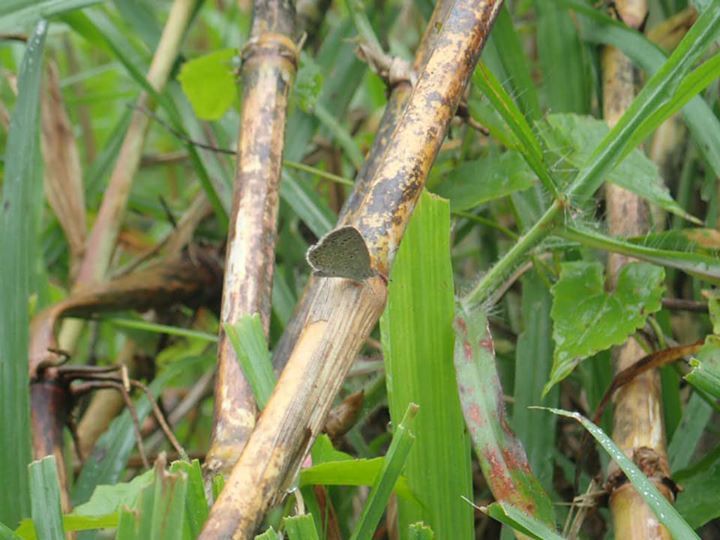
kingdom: Animalia
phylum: Arthropoda
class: Insecta
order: Lepidoptera
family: Lycaenidae
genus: Pseudozizeeria
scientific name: Pseudozizeeria maha
